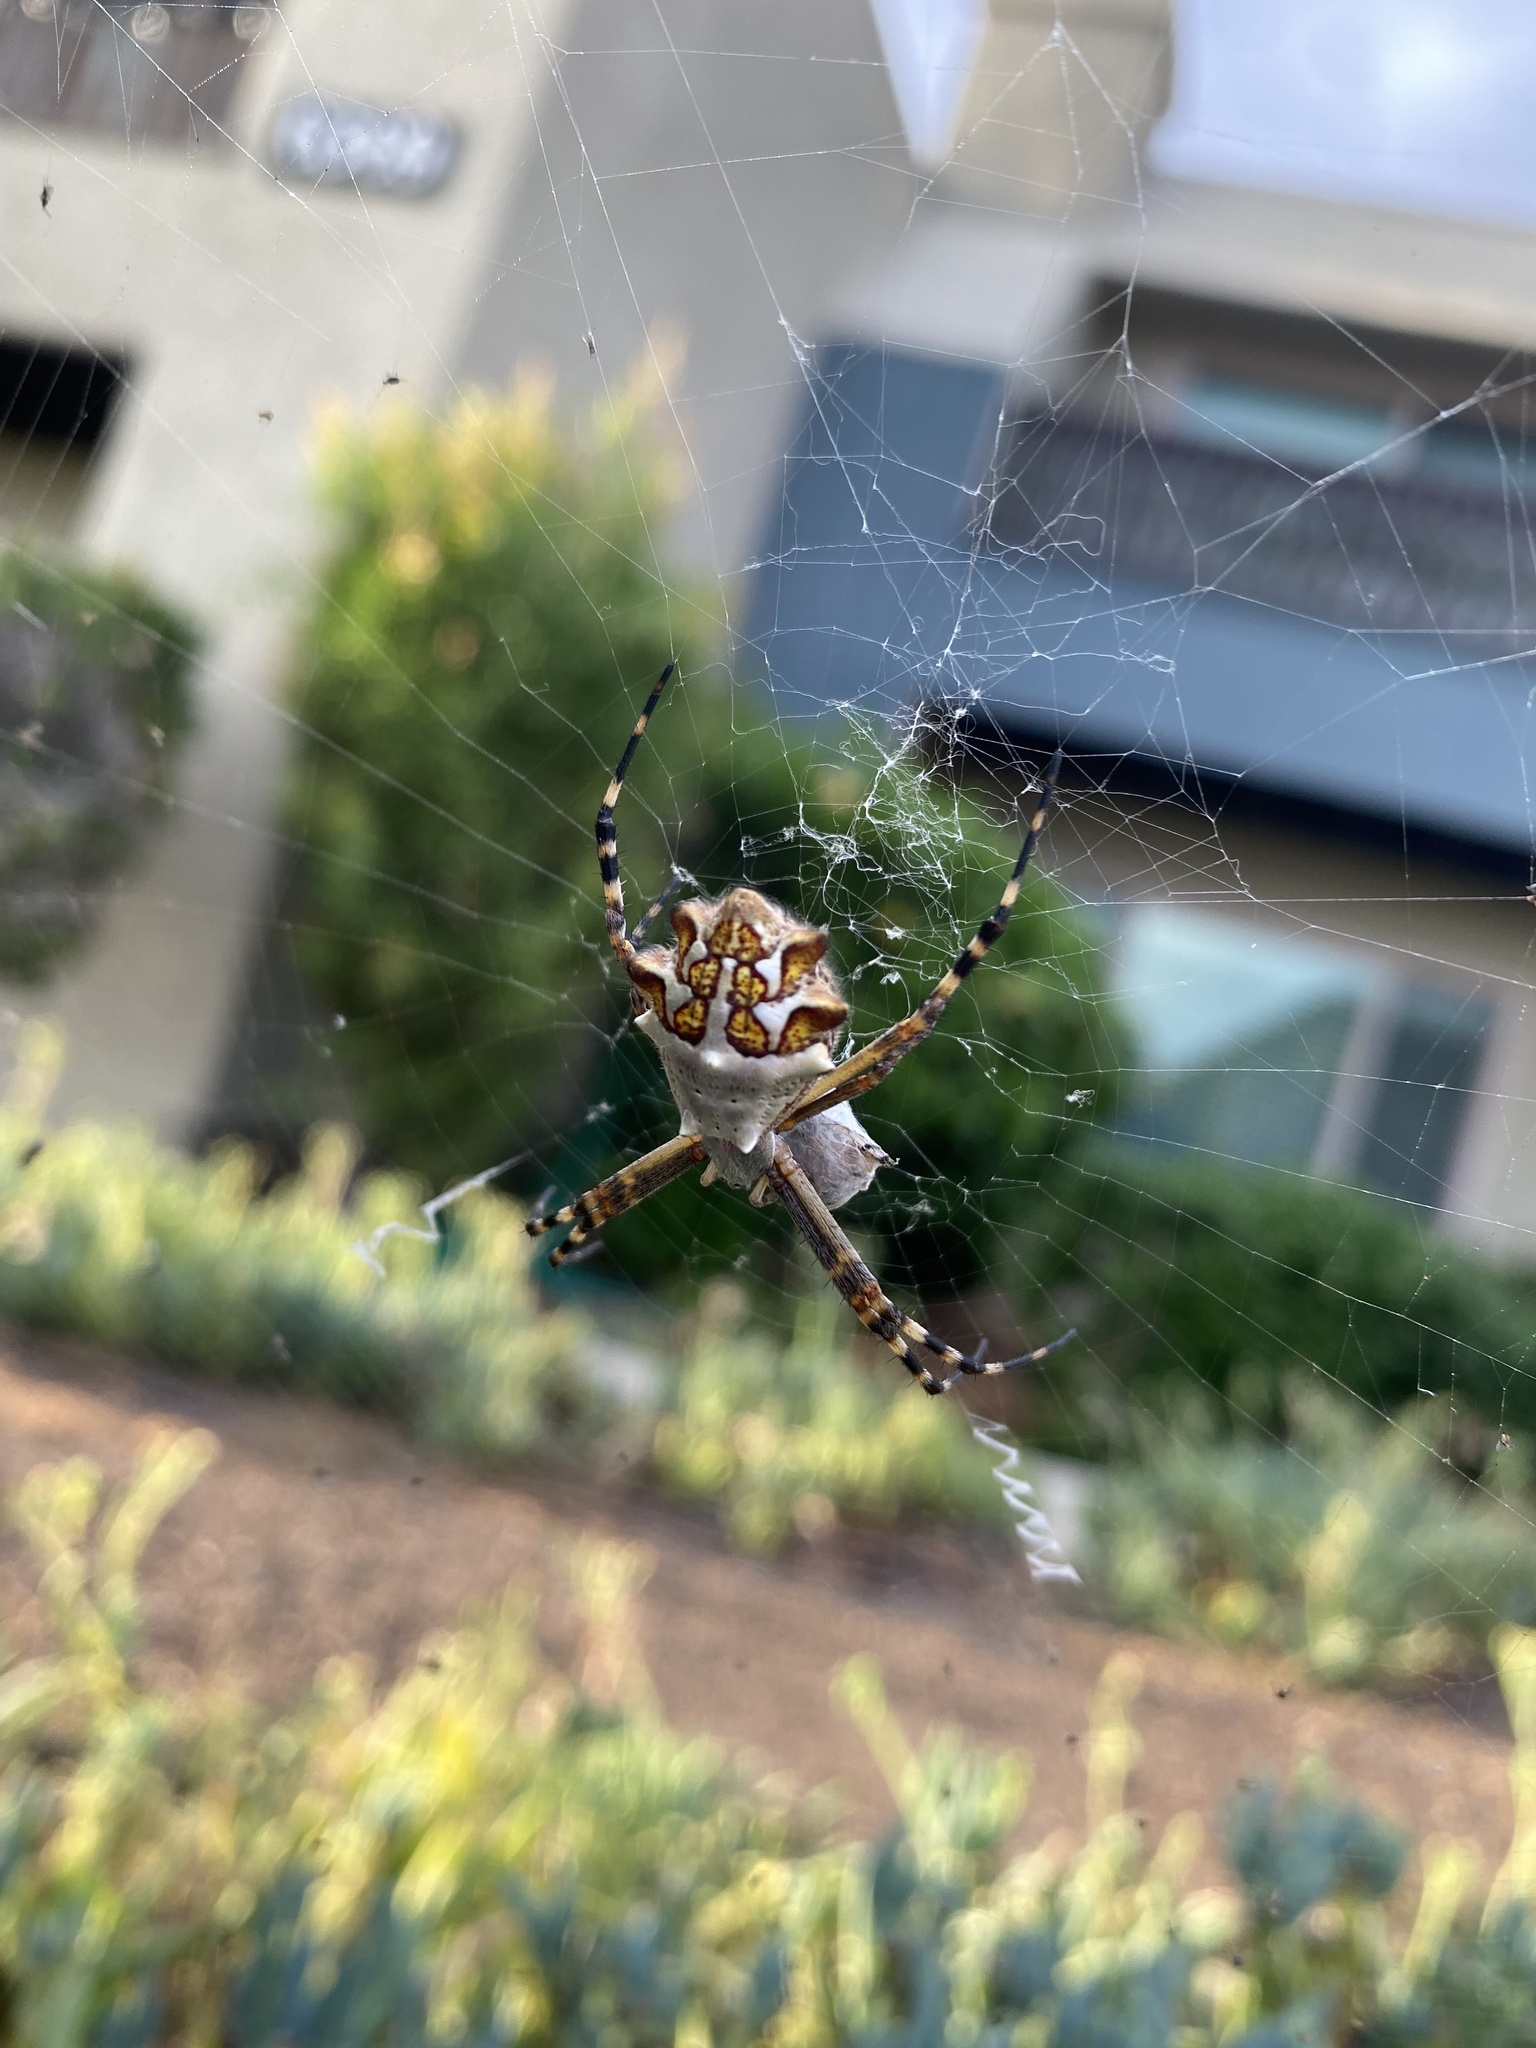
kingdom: Animalia
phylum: Arthropoda
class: Arachnida
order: Araneae
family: Araneidae
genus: Argiope
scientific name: Argiope argentata
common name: Orb weavers
